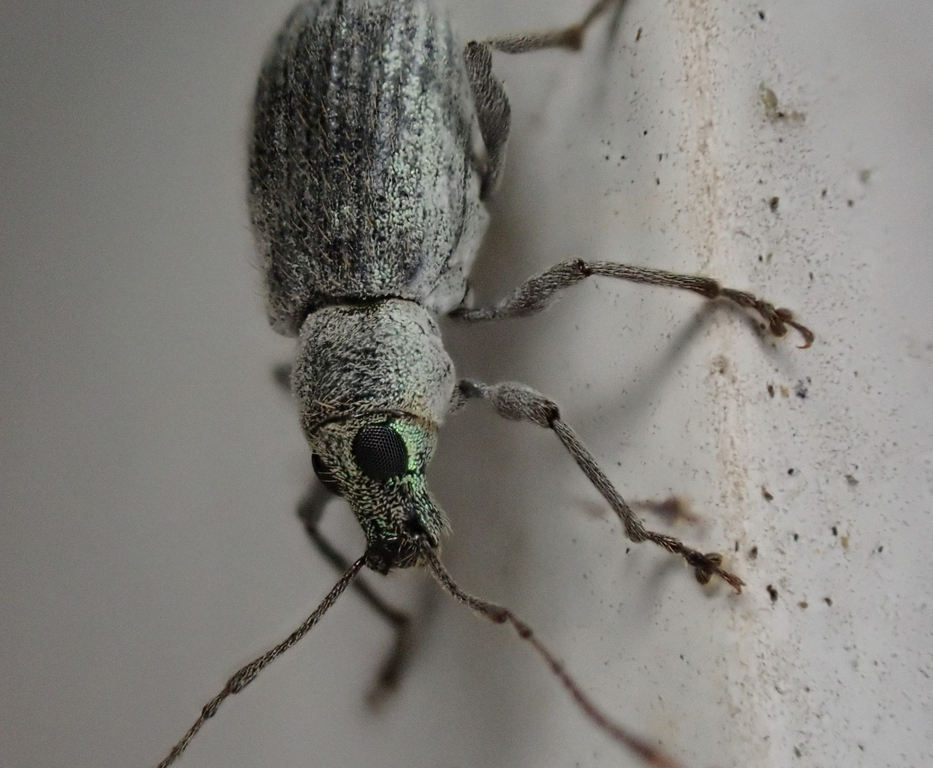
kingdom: Animalia
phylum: Arthropoda
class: Insecta
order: Coleoptera
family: Curculionidae
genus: Cyrtepistomus
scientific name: Cyrtepistomus castaneus
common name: Weevil
